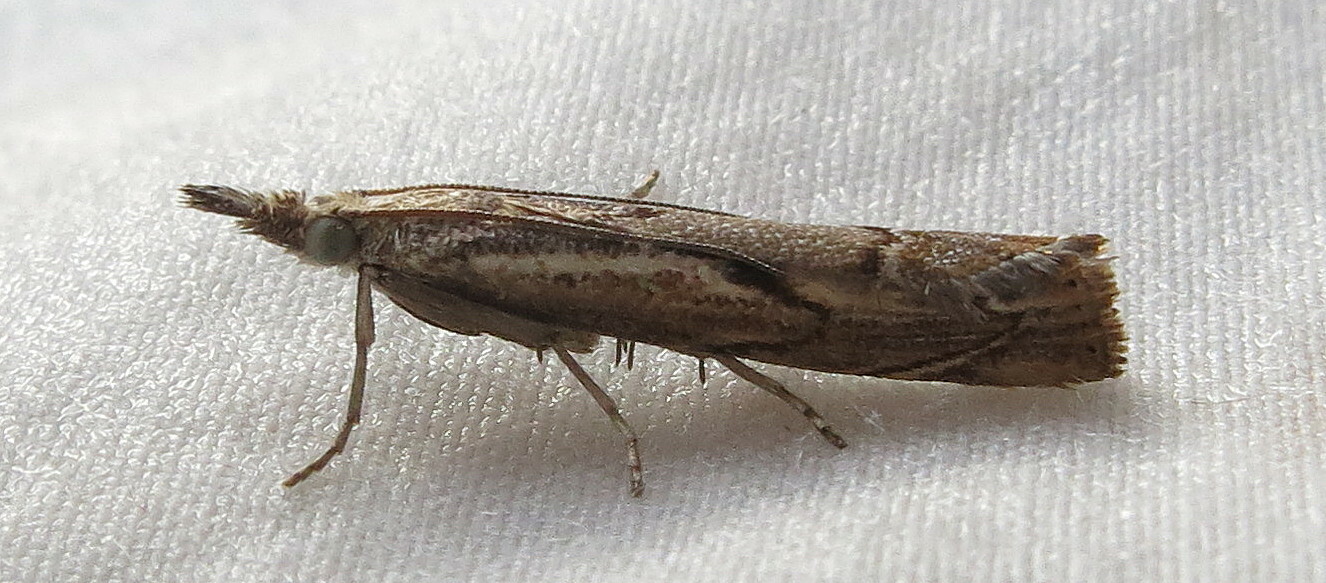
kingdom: Animalia
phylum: Arthropoda
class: Insecta
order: Lepidoptera
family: Crambidae
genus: Agriphila
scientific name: Agriphila geniculea
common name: Elbow-stripe grass-veneer
